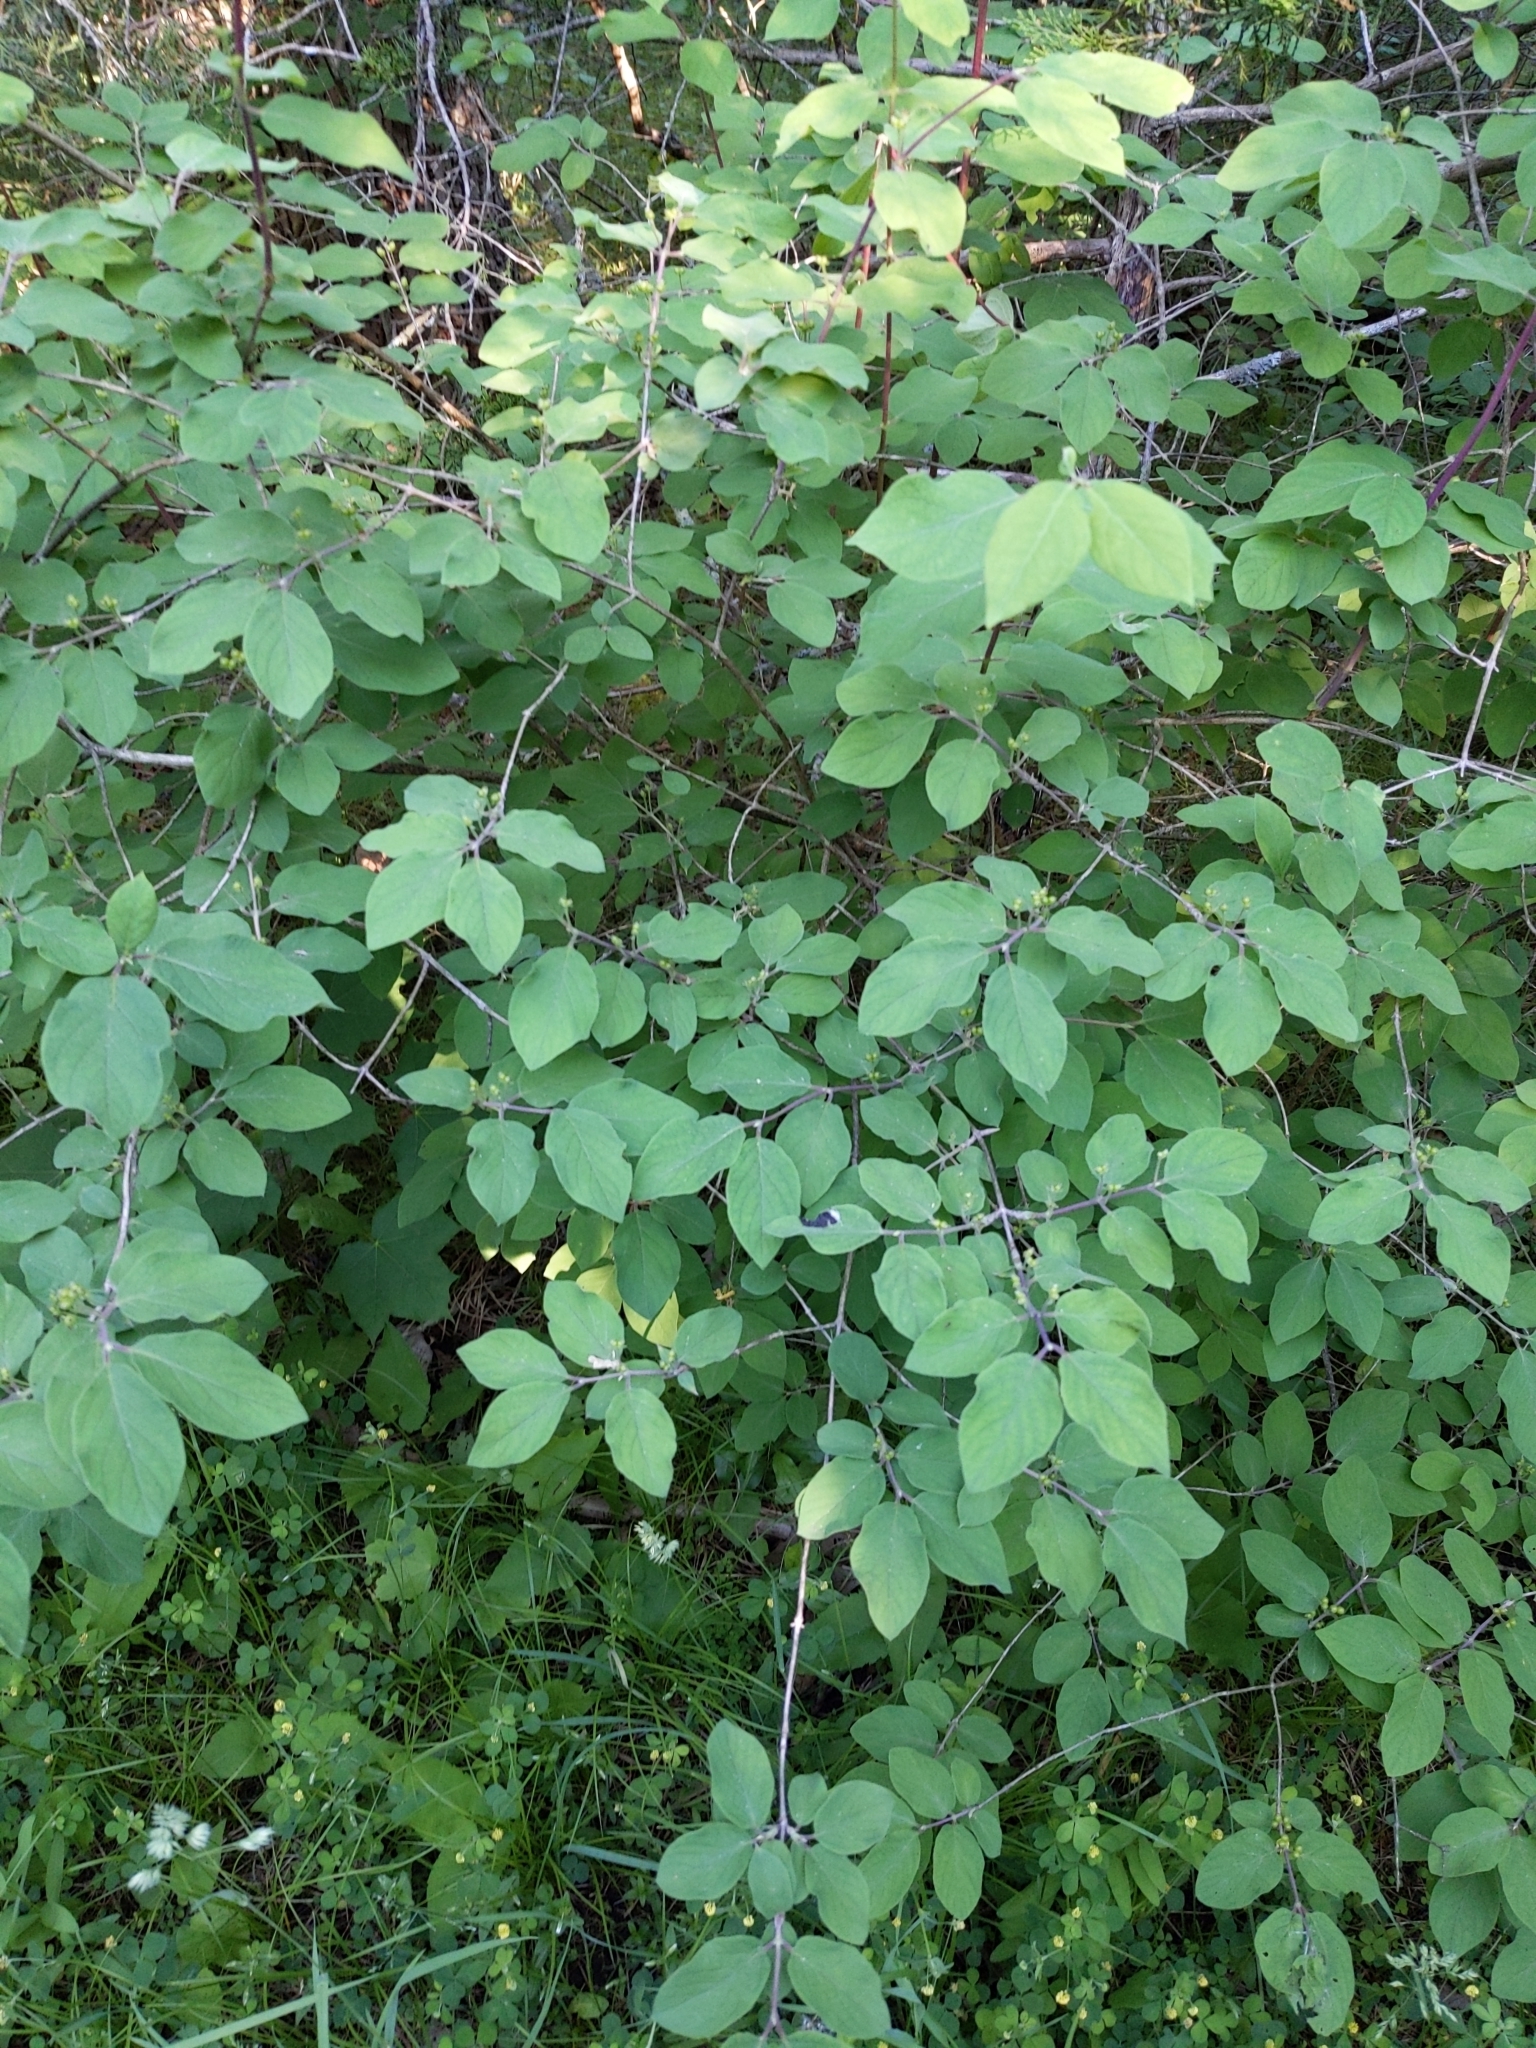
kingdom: Plantae
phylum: Tracheophyta
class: Magnoliopsida
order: Dipsacales
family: Caprifoliaceae
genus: Lonicera
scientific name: Lonicera xylosteum
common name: Fly honeysuckle
